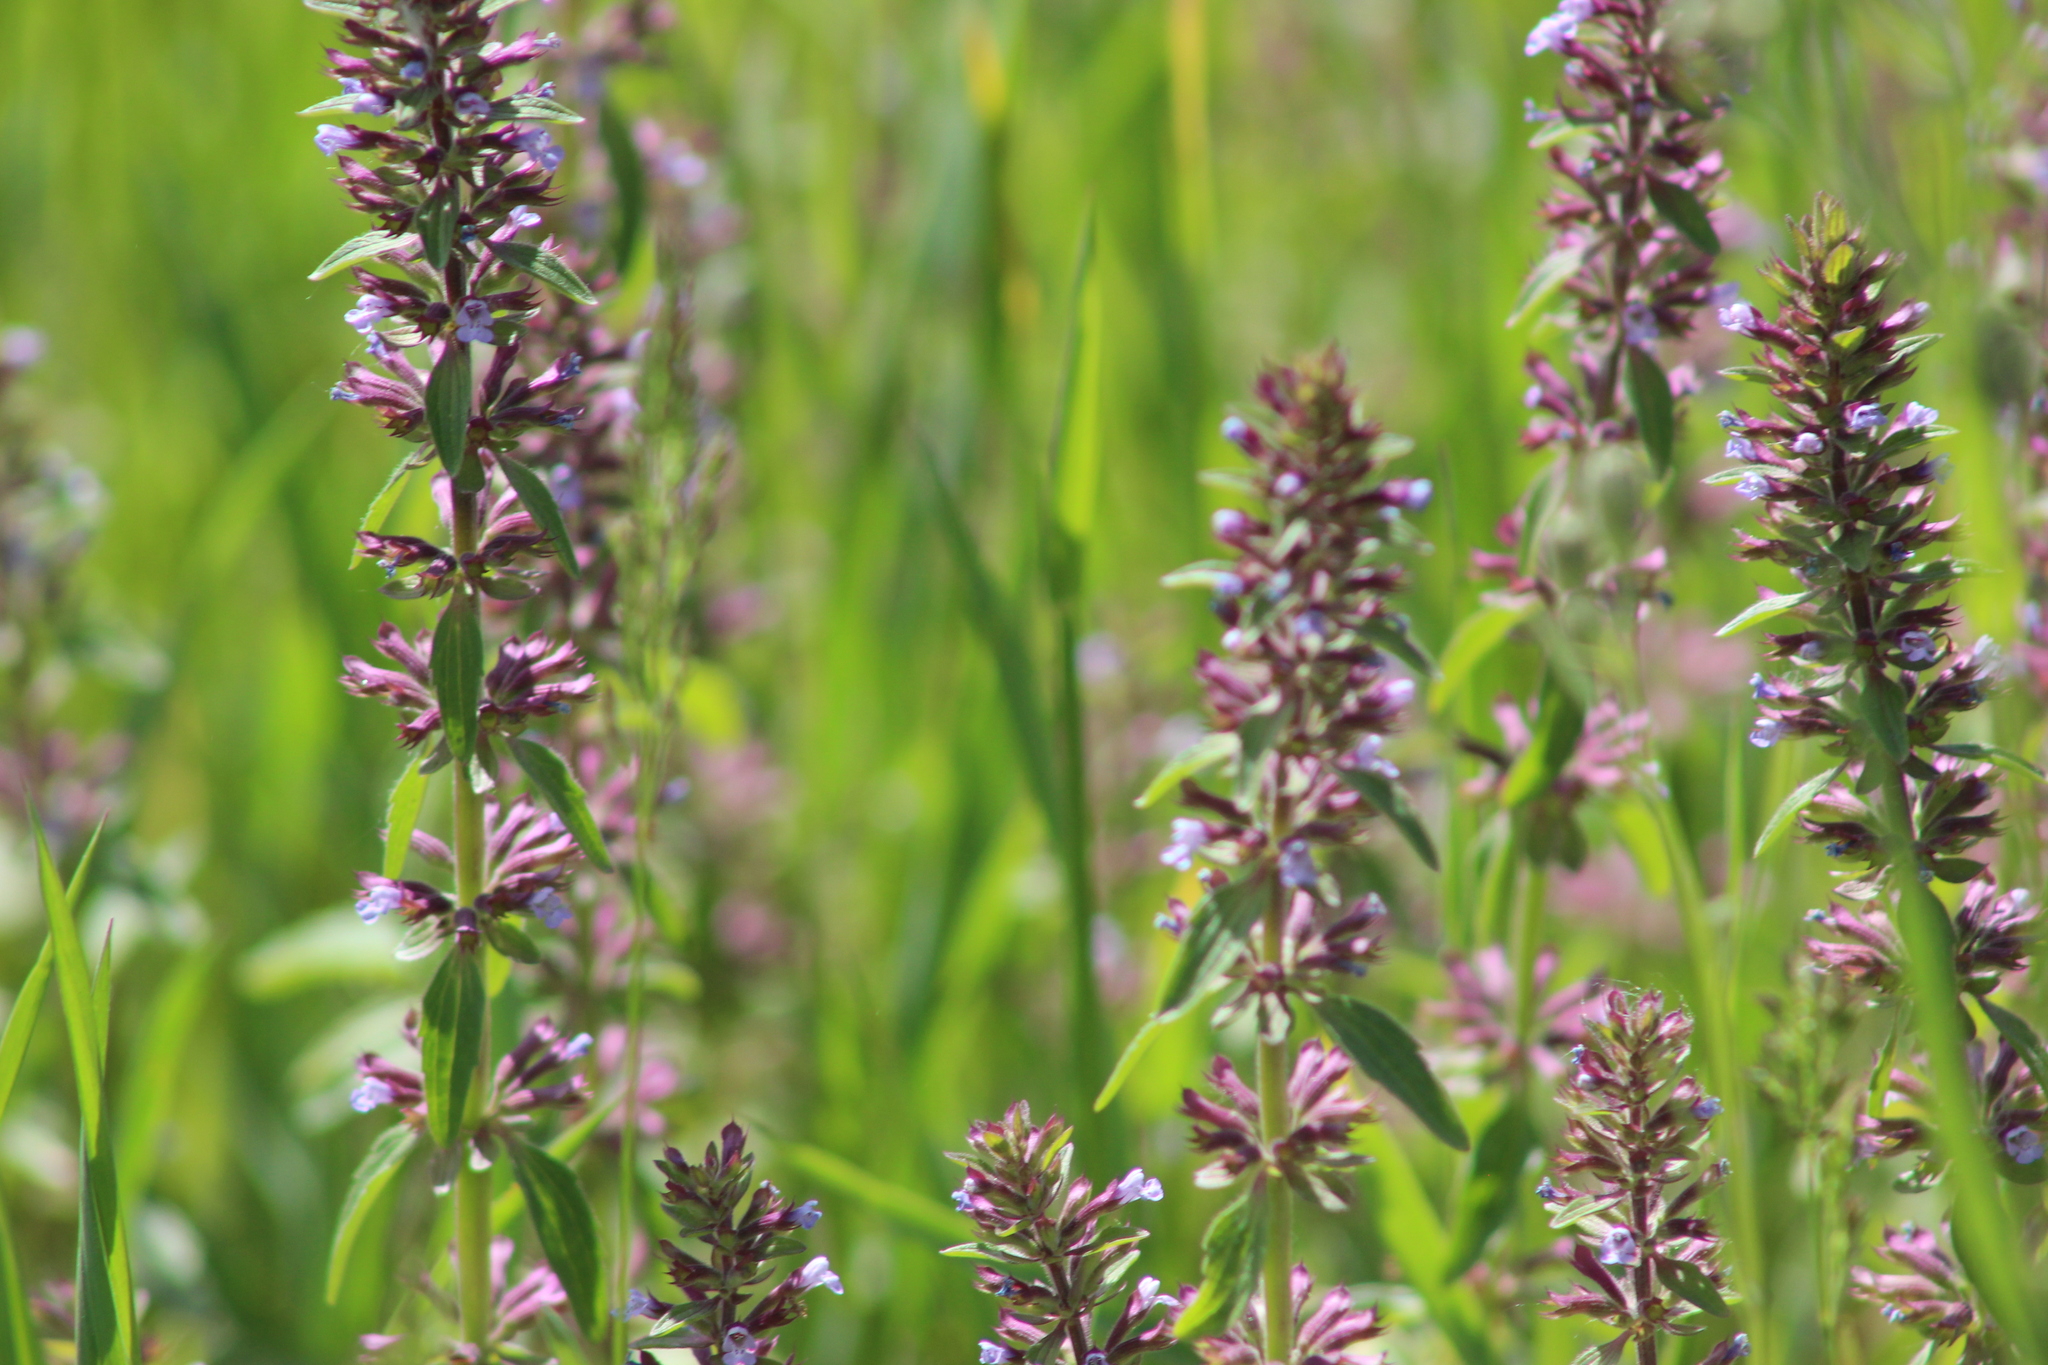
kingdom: Plantae
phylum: Tracheophyta
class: Magnoliopsida
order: Lamiales
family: Lamiaceae
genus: Dracocephalum
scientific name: Dracocephalum thymiflorum
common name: Thymeleaf dragonhead
